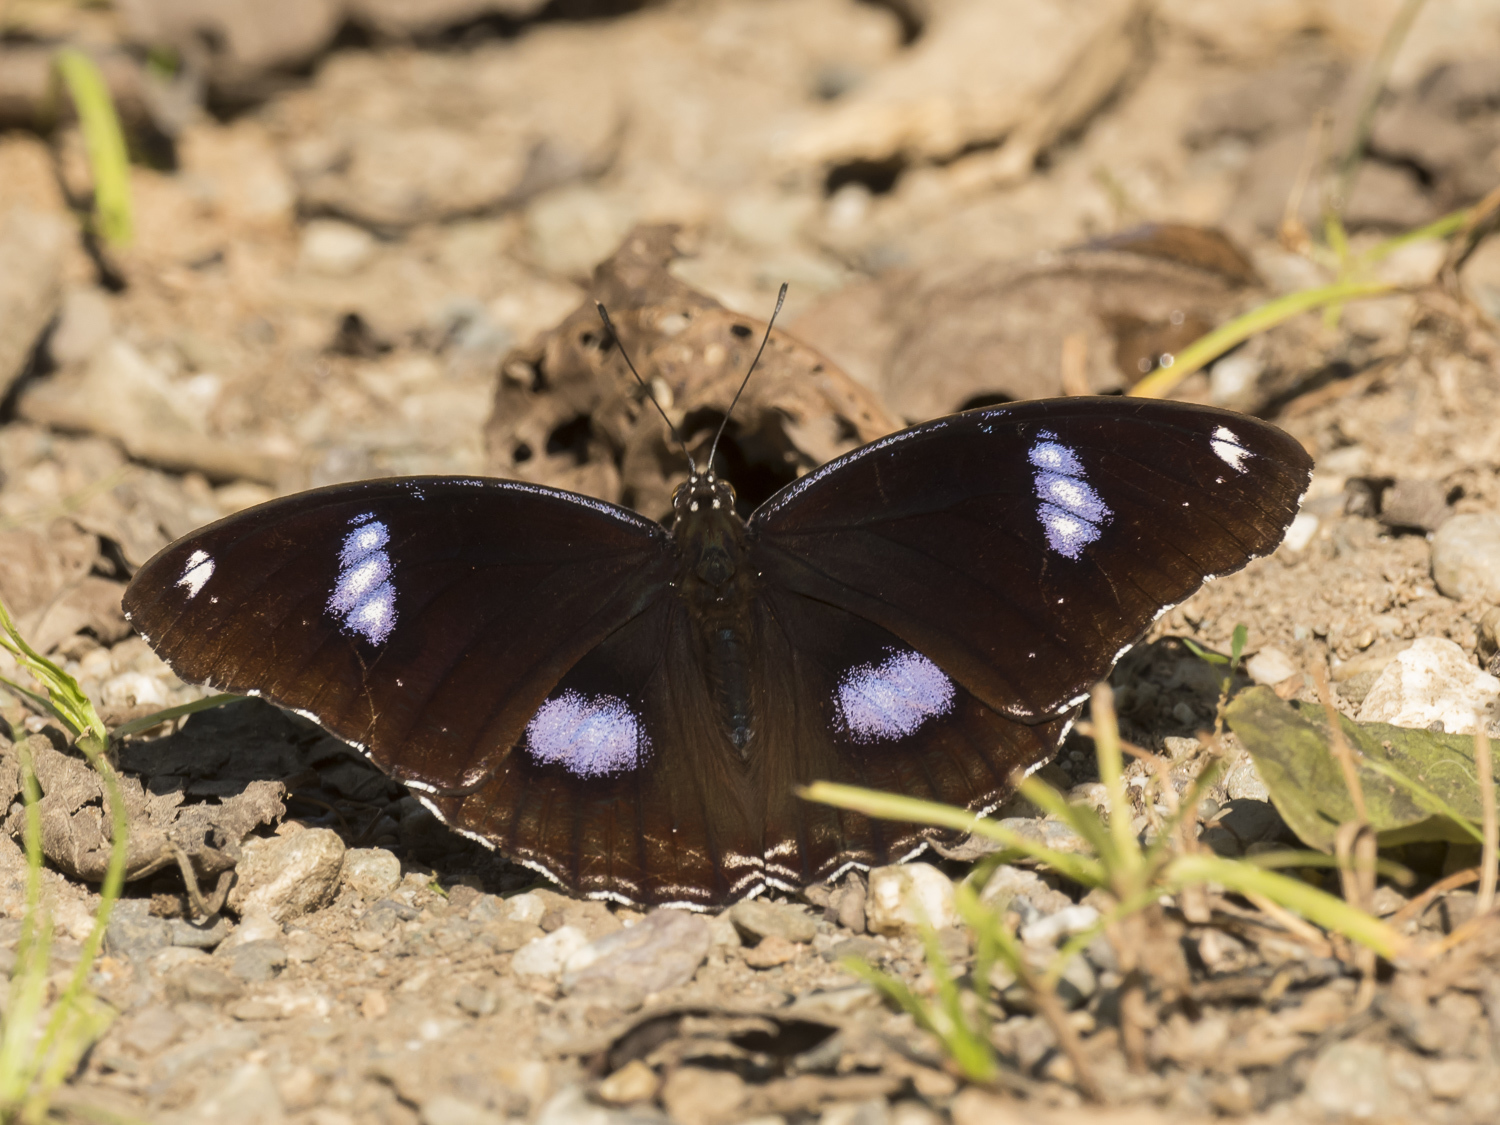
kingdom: Animalia
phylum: Arthropoda
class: Insecta
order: Lepidoptera
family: Nymphalidae
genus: Hypolimnas
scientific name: Hypolimnas bolina
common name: Great eggfly
